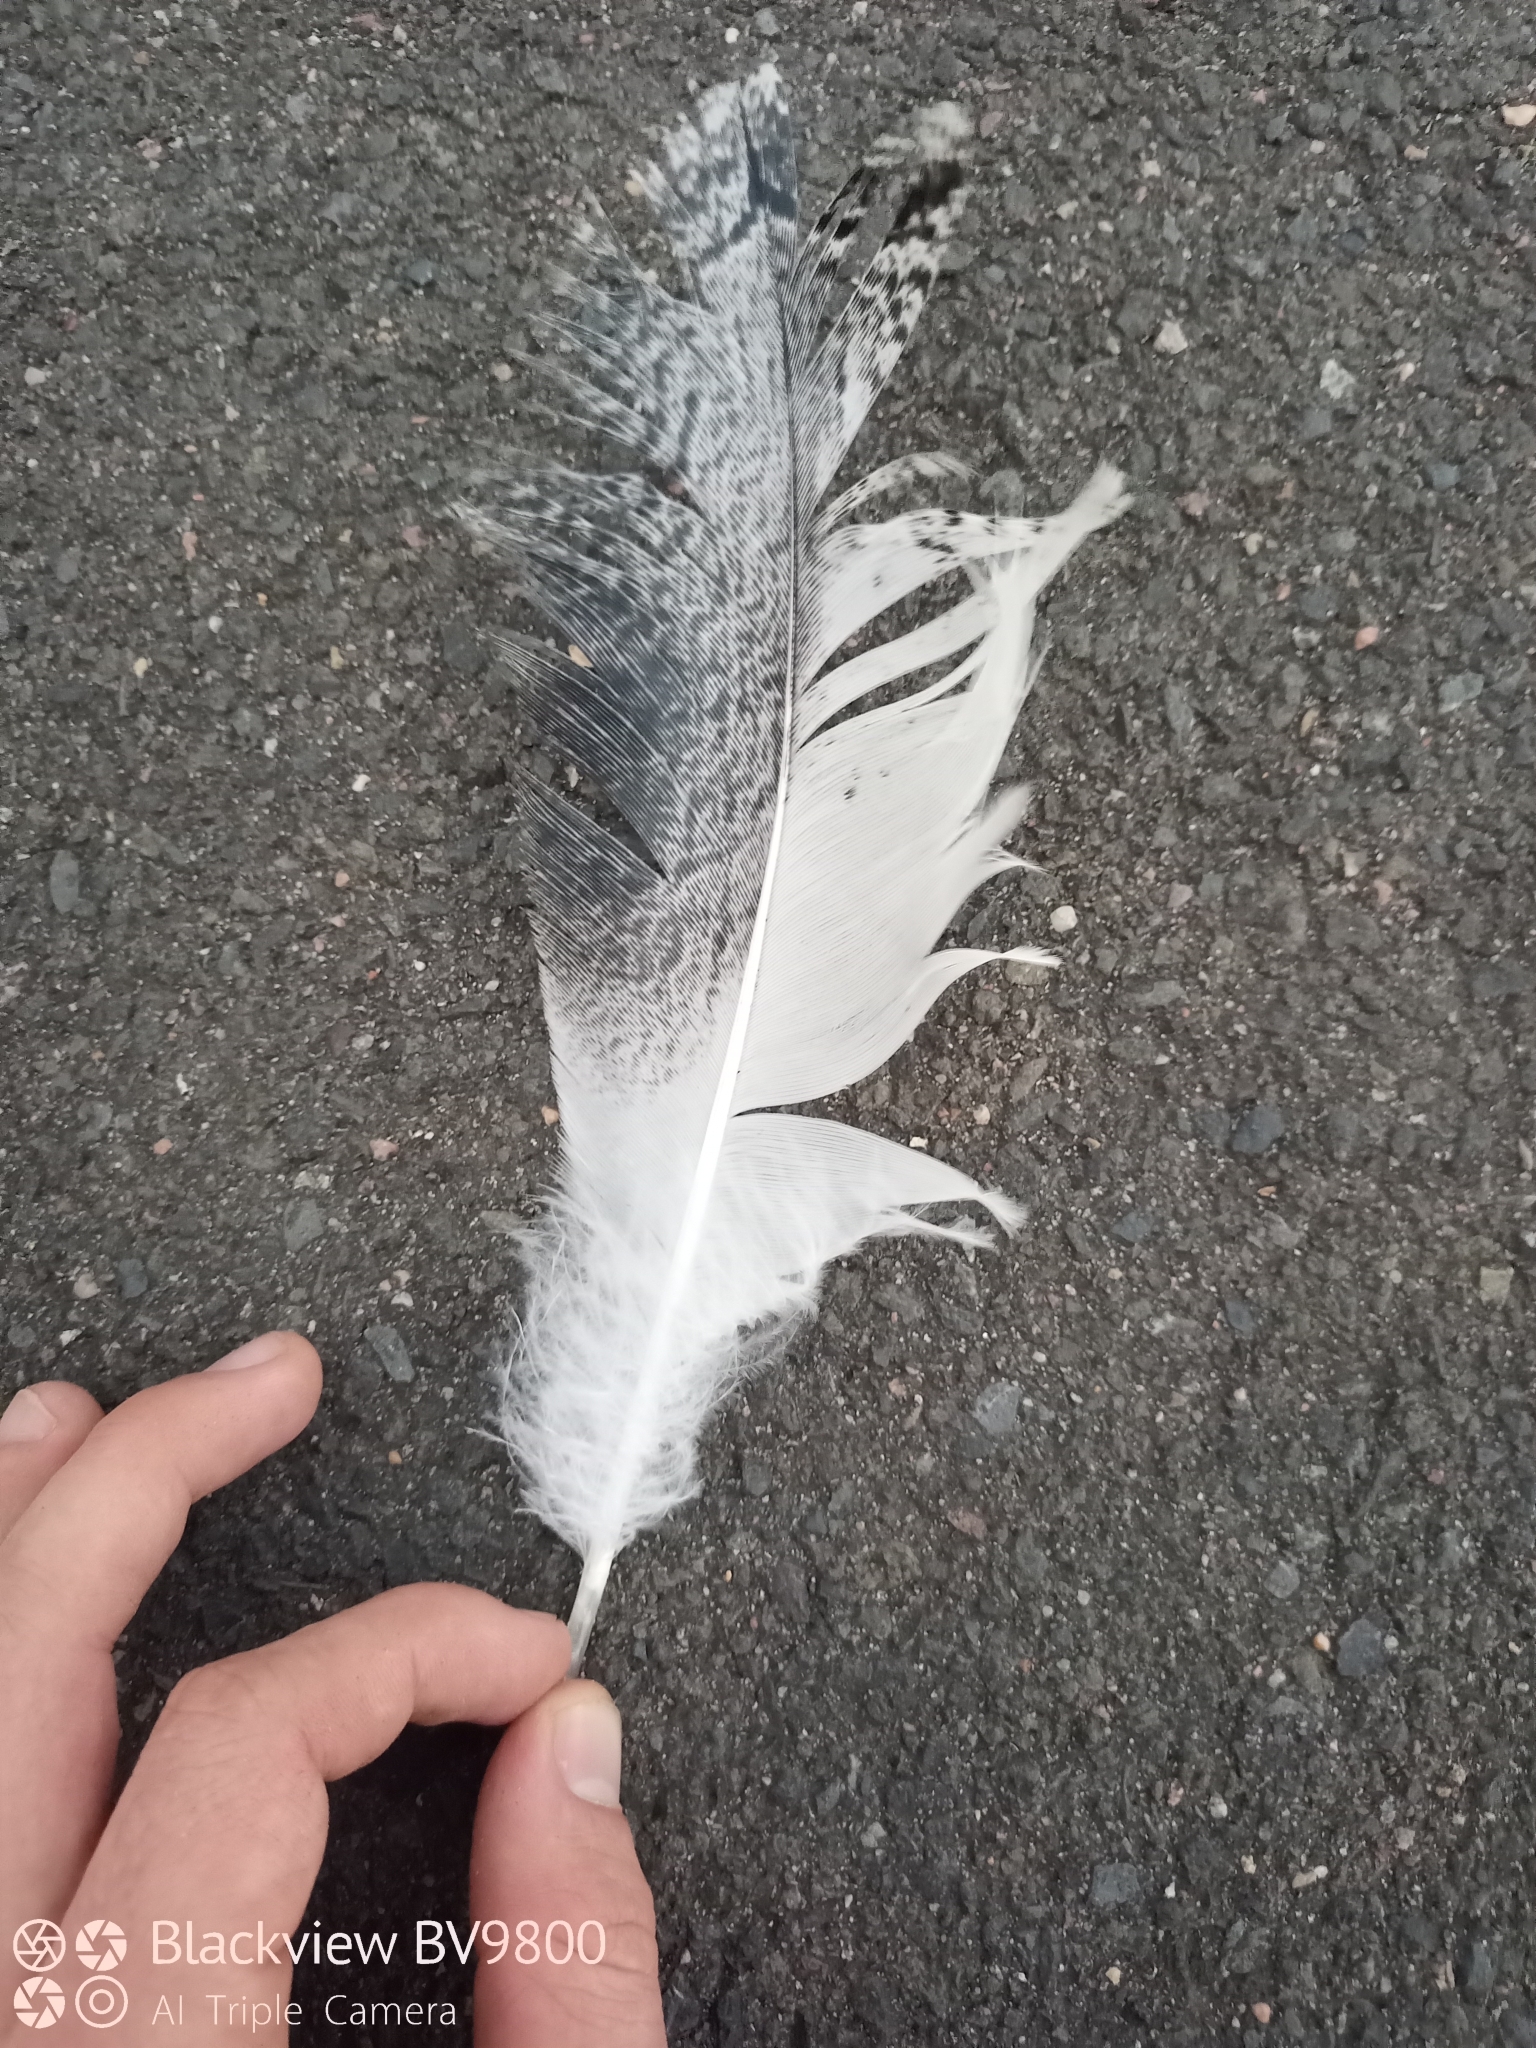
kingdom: Animalia
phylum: Chordata
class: Aves
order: Pelecaniformes
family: Threskiornithidae
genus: Threskiornis
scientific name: Threskiornis molucca
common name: Australian white ibis
